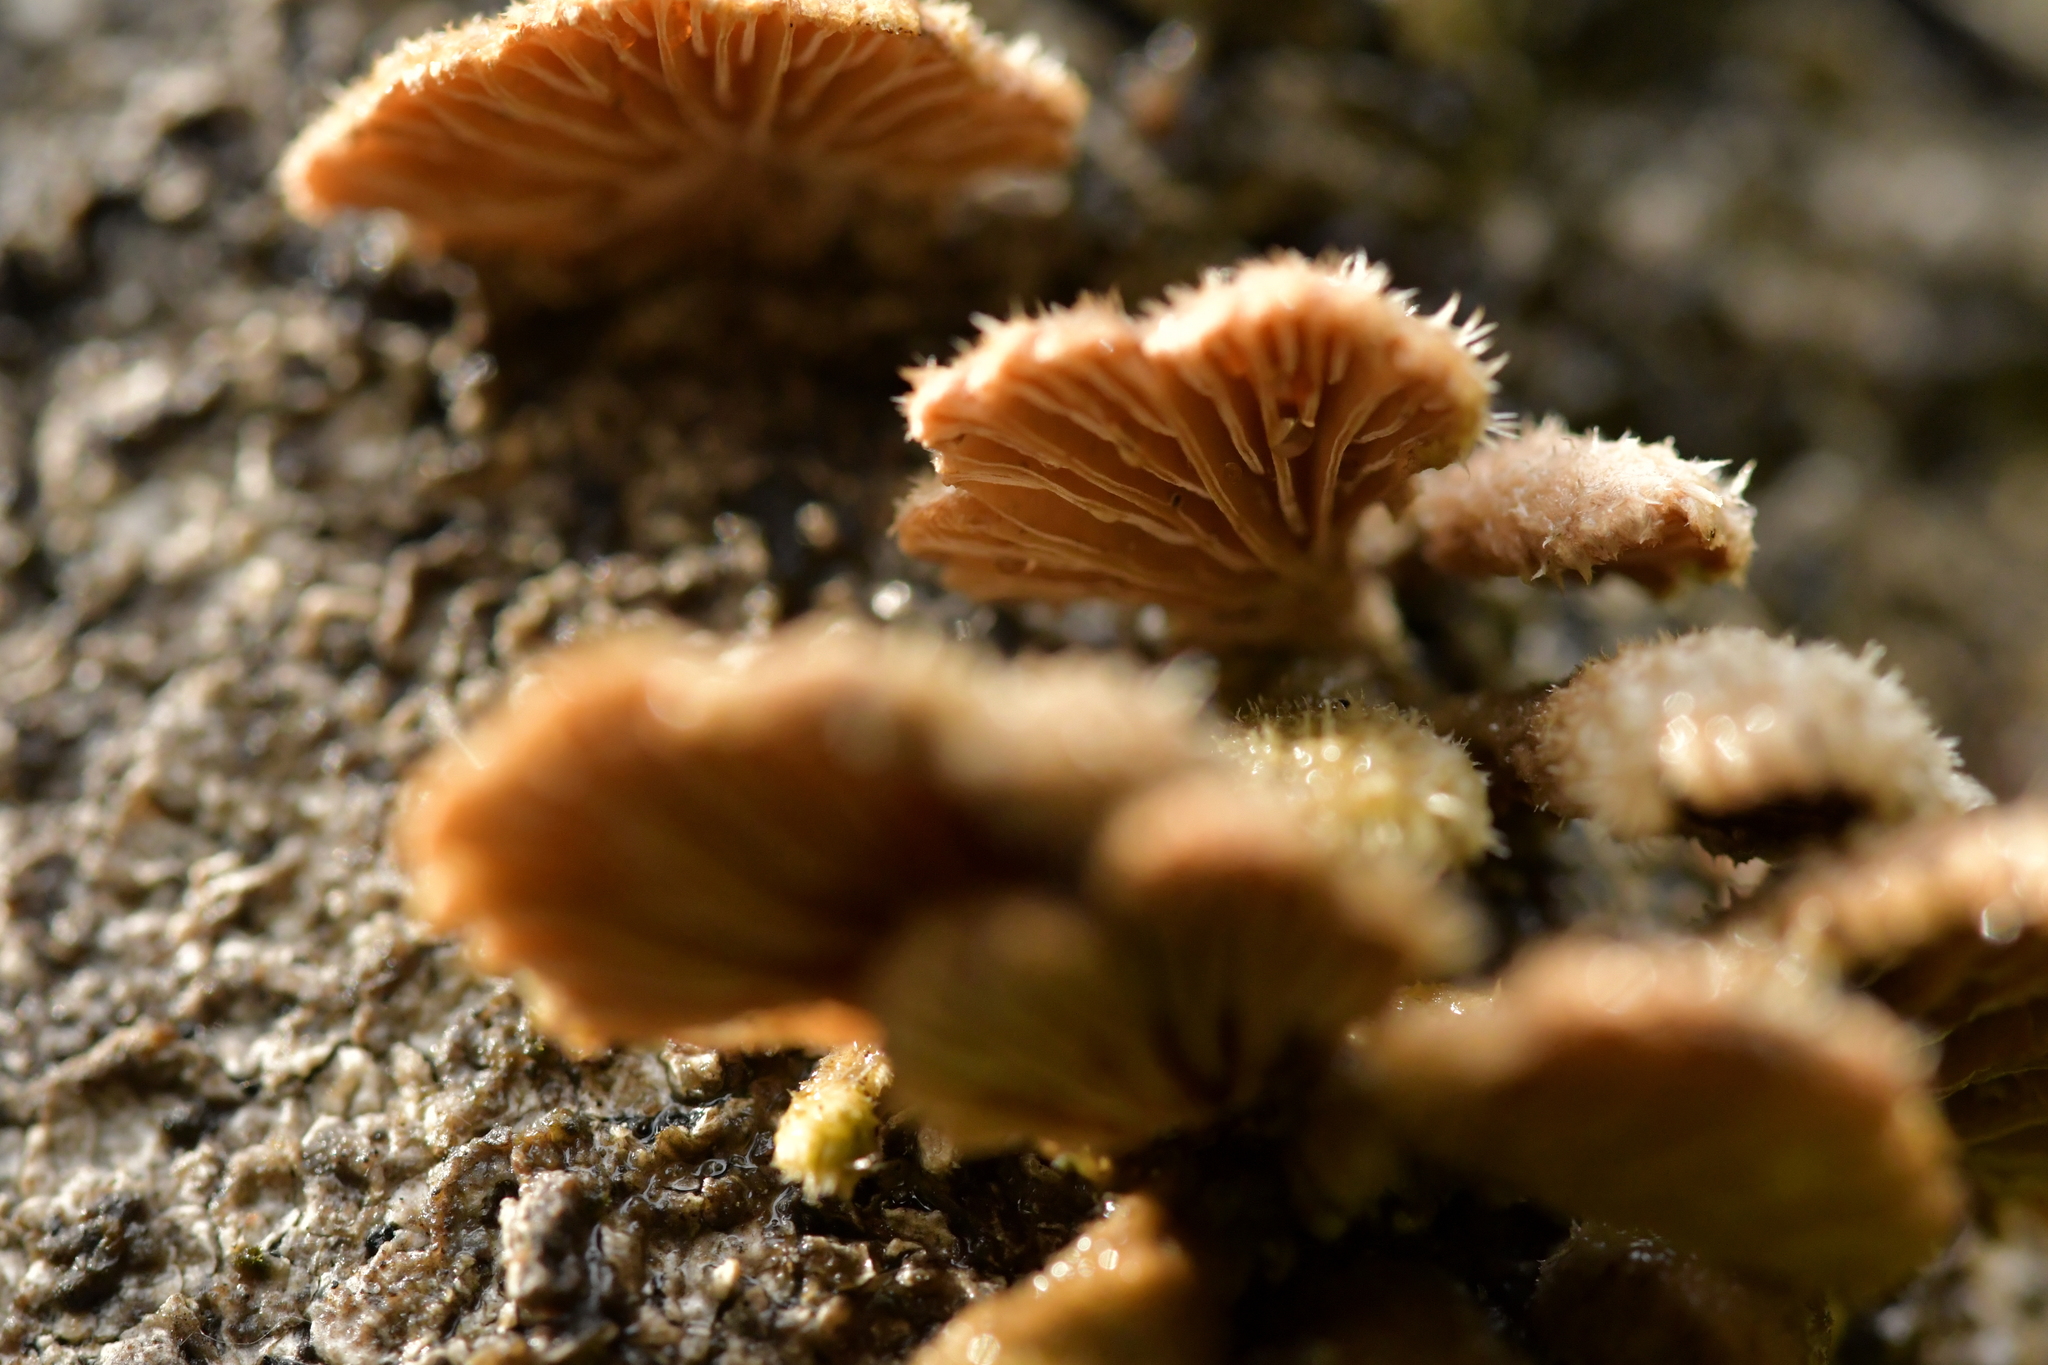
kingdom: Fungi
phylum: Basidiomycota
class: Agaricomycetes
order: Agaricales
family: Schizophyllaceae
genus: Schizophyllum
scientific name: Schizophyllum commune
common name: Common porecrust
